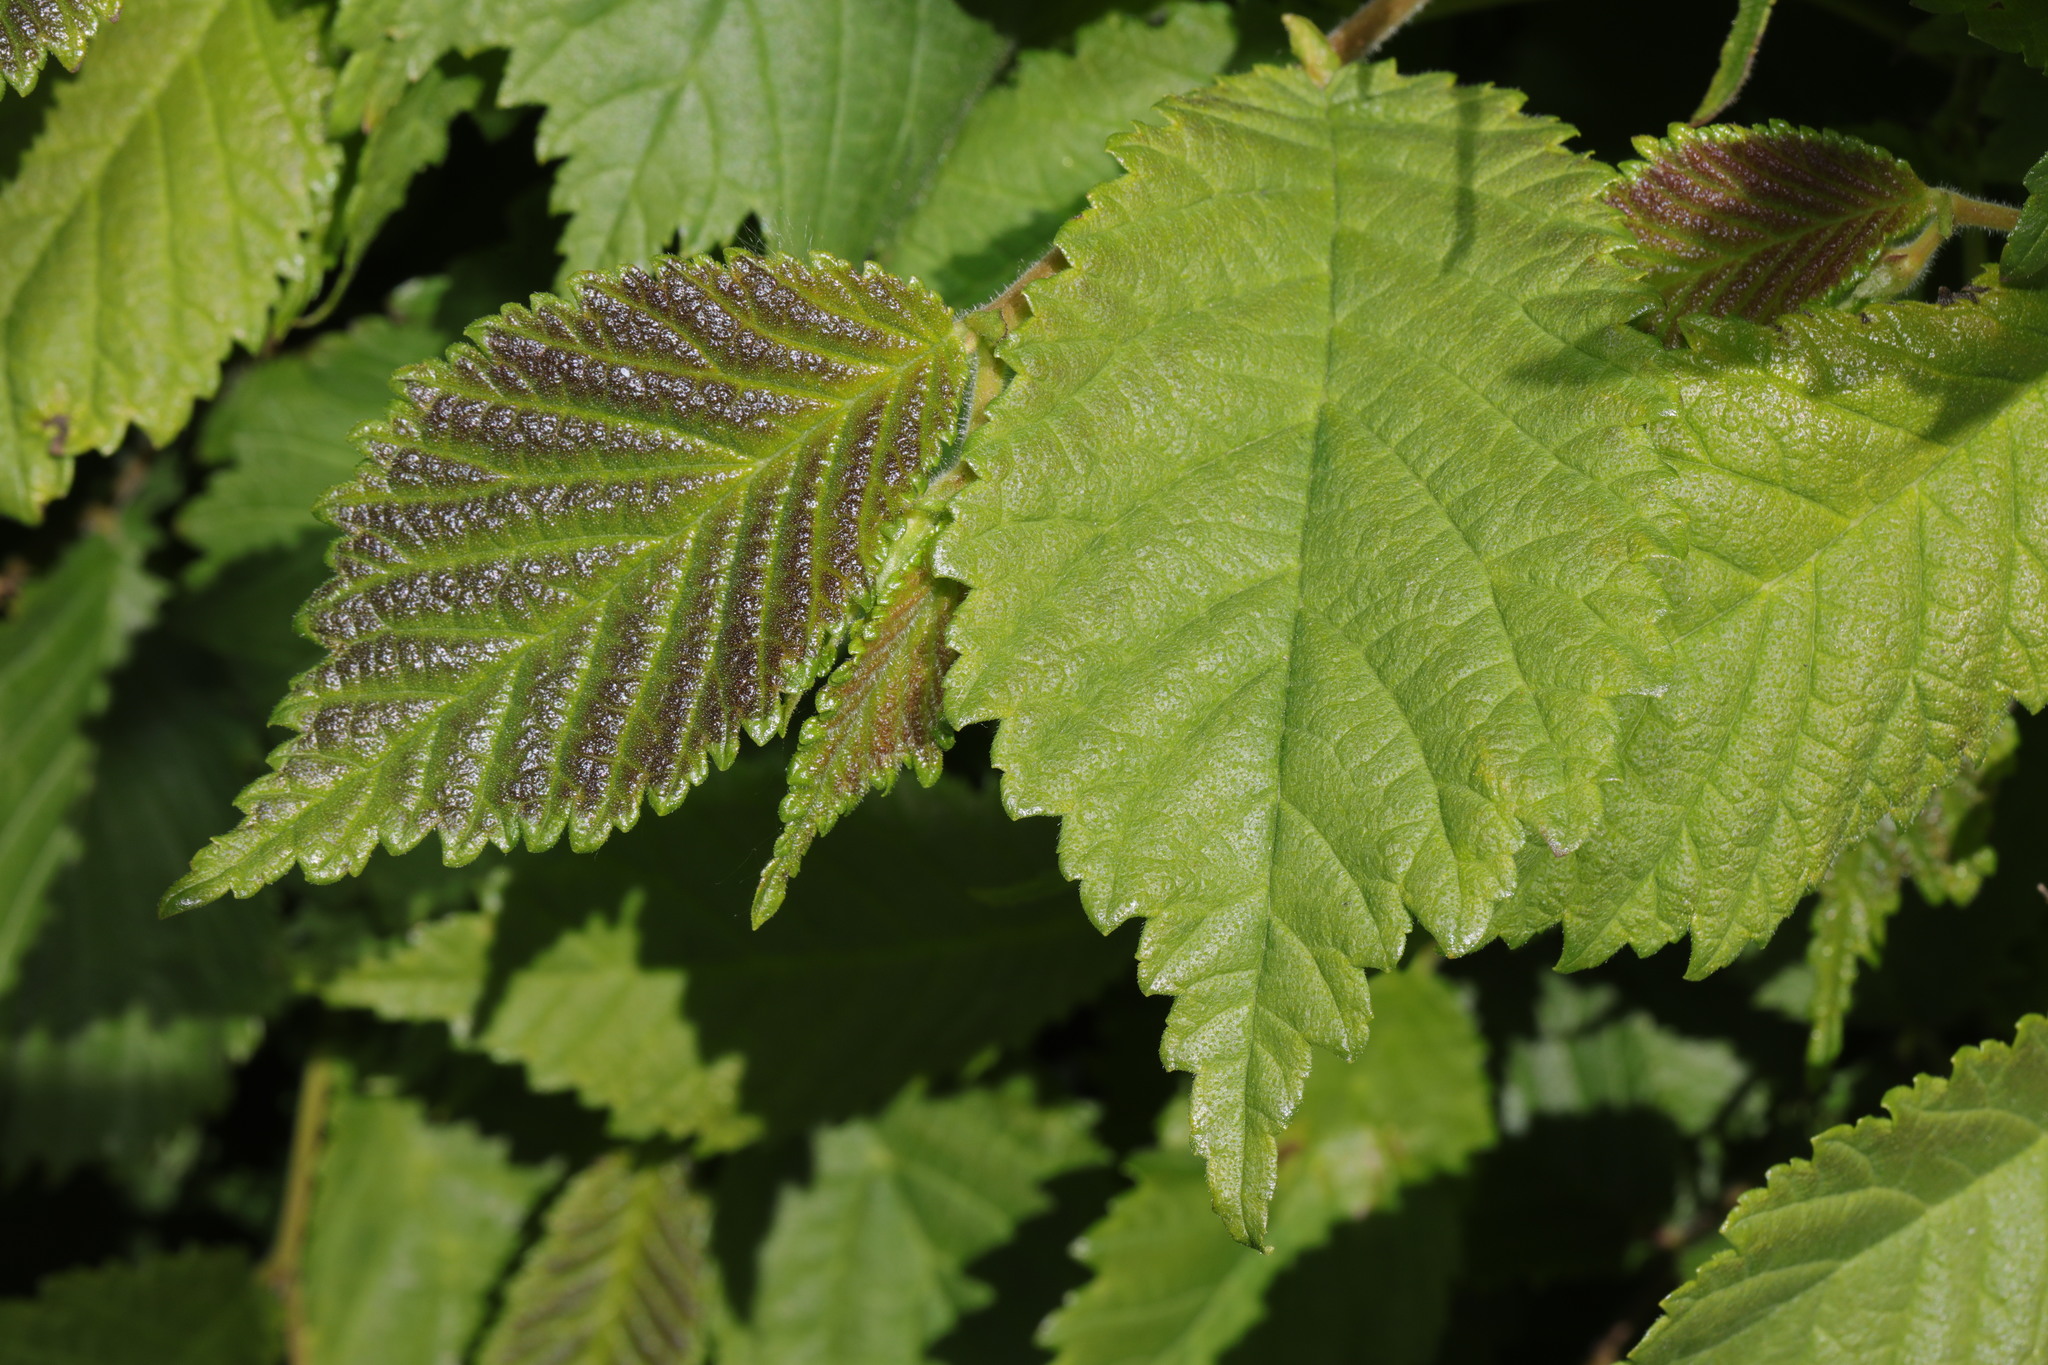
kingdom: Plantae
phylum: Tracheophyta
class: Magnoliopsida
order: Rosales
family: Ulmaceae
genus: Ulmus
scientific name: Ulmus minor
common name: Small-leaved elm
